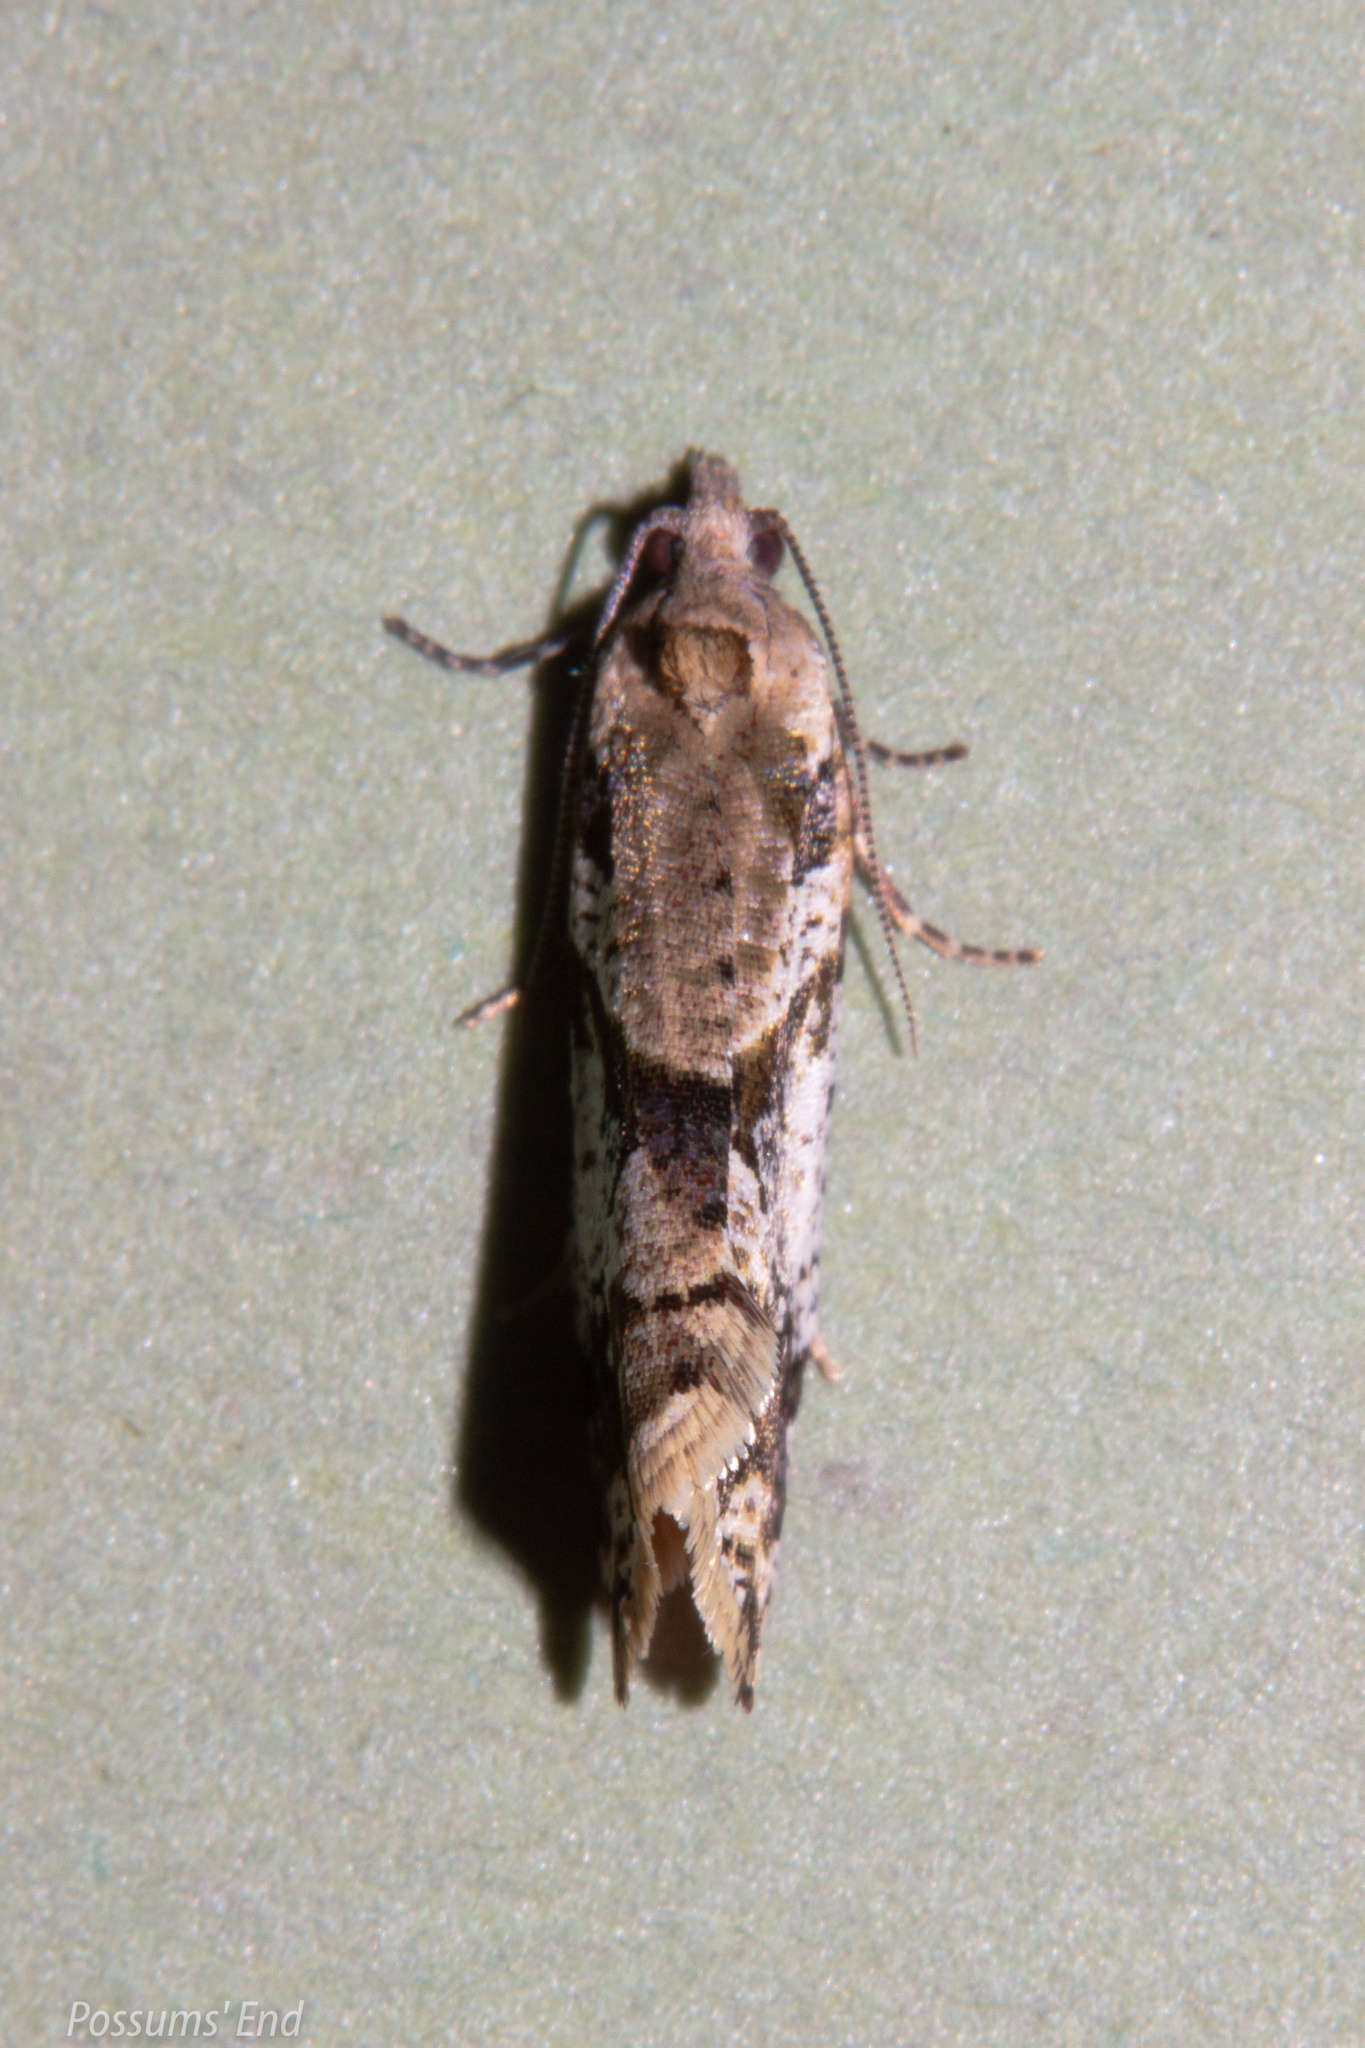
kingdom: Animalia
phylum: Arthropoda
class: Insecta
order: Lepidoptera
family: Tortricidae
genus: Pyrgotis
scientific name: Pyrgotis plagiatana
